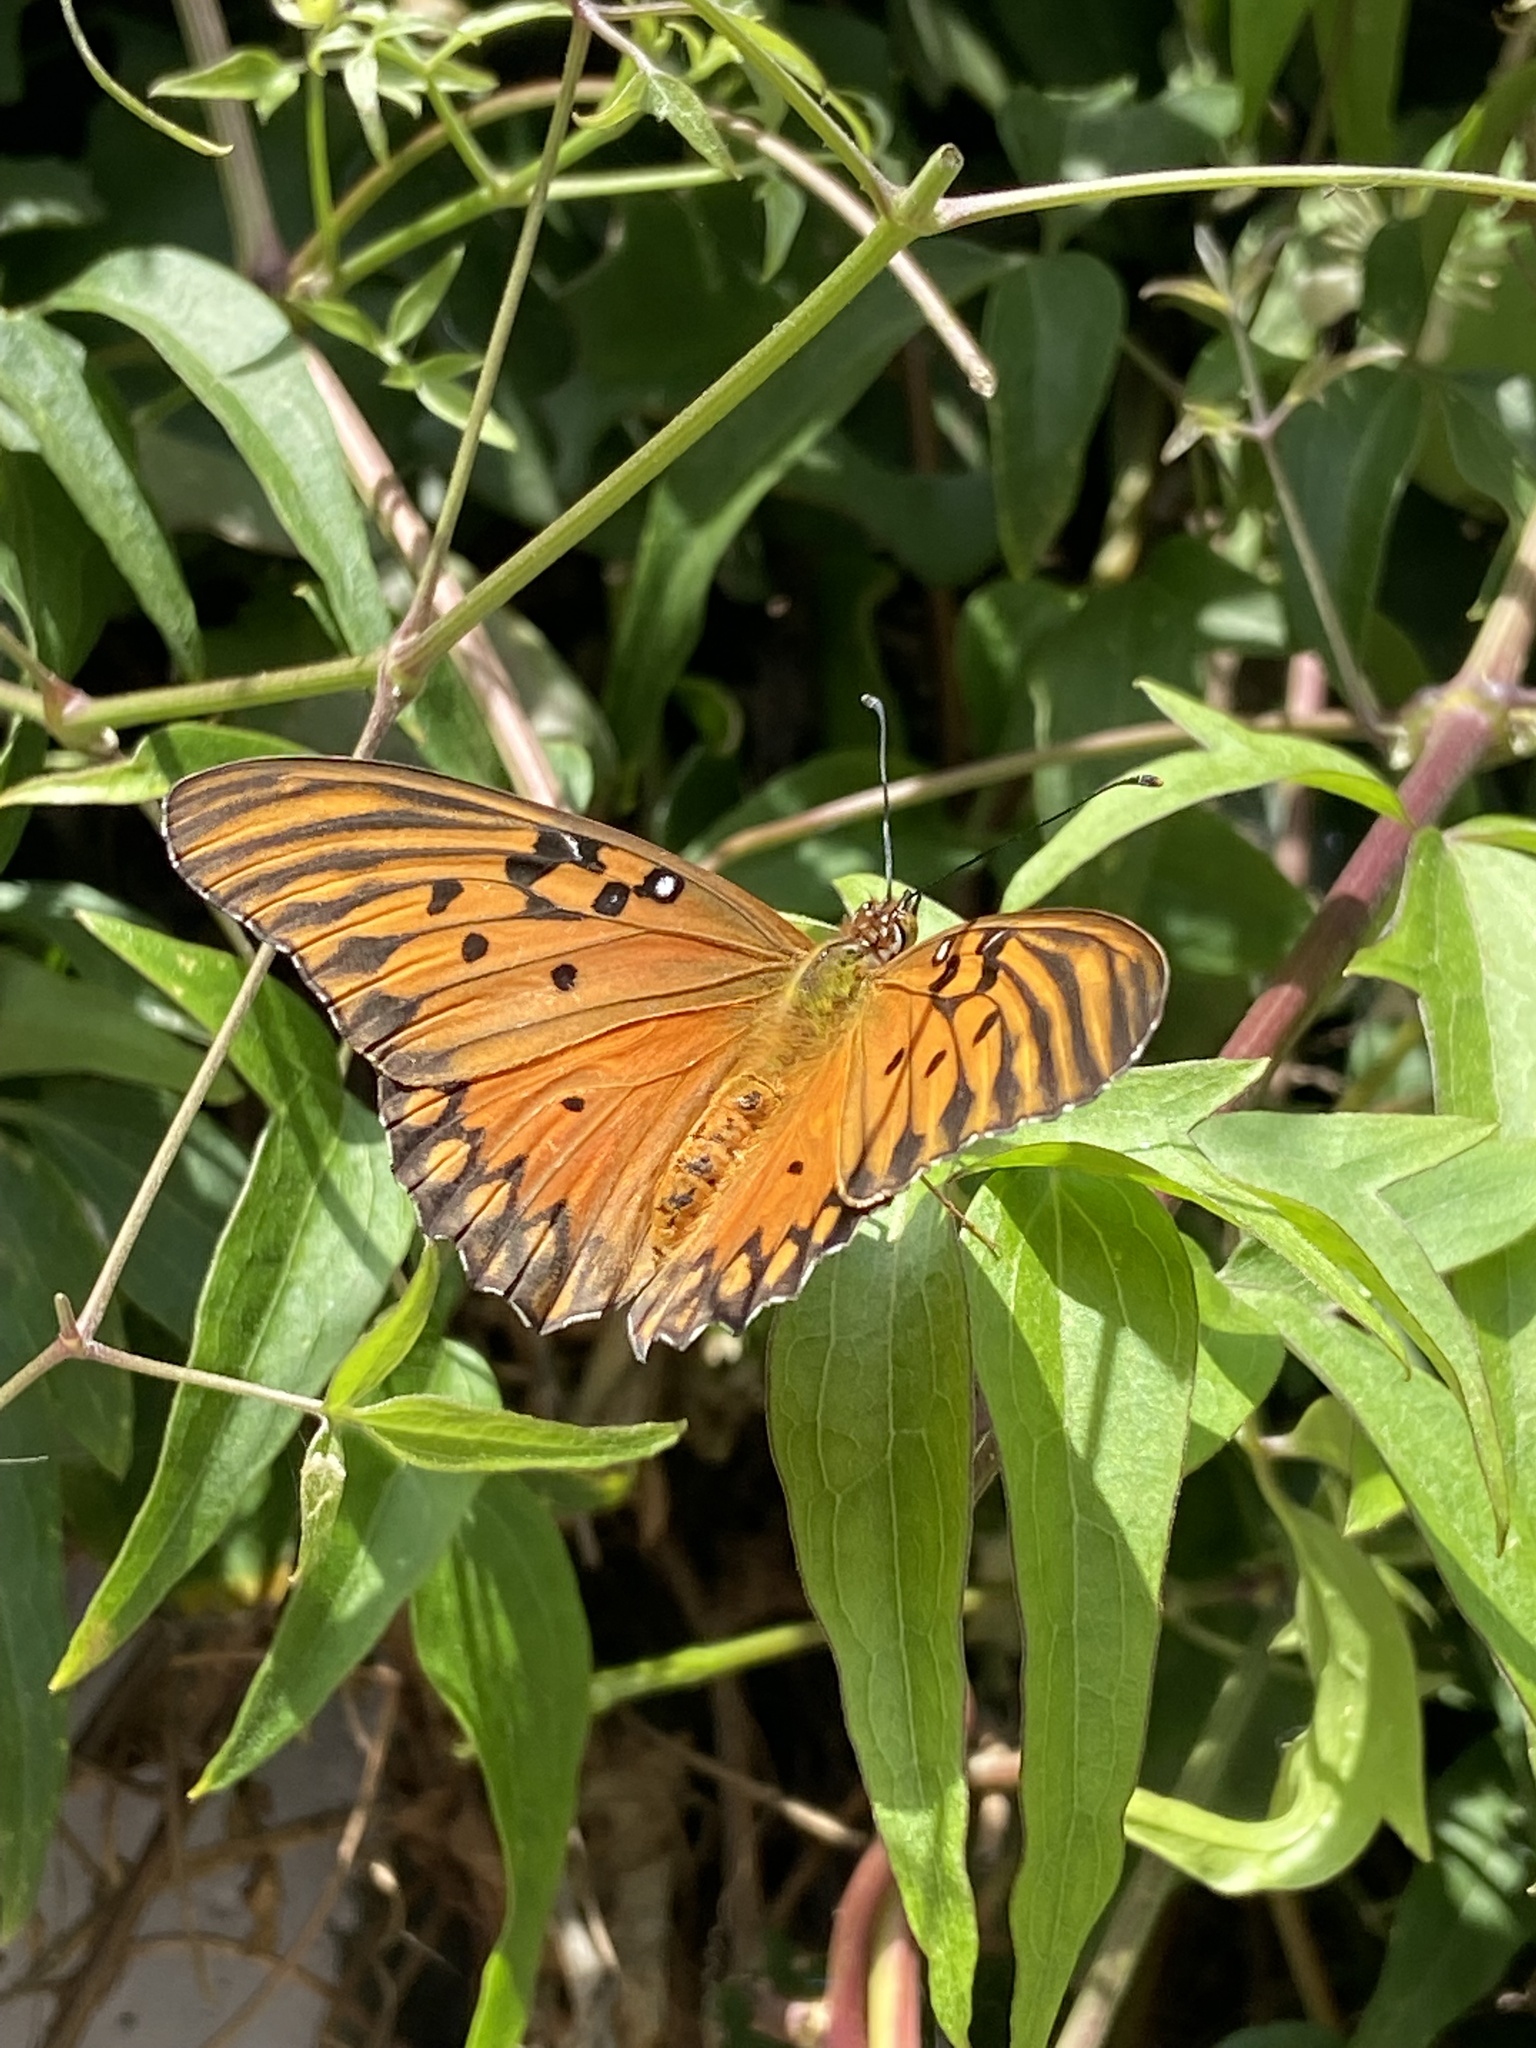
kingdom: Animalia
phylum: Arthropoda
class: Insecta
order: Lepidoptera
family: Nymphalidae
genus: Dione
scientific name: Dione vanillae
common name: Gulf fritillary
